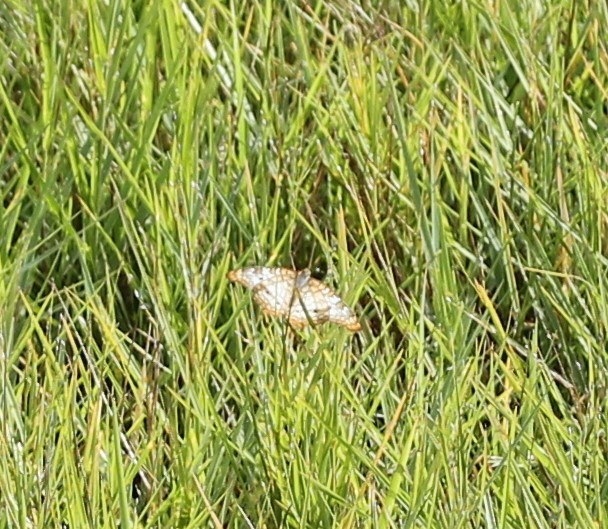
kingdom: Animalia
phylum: Arthropoda
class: Insecta
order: Lepidoptera
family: Nymphalidae
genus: Anartia
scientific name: Anartia jatrophae
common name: White peacock
